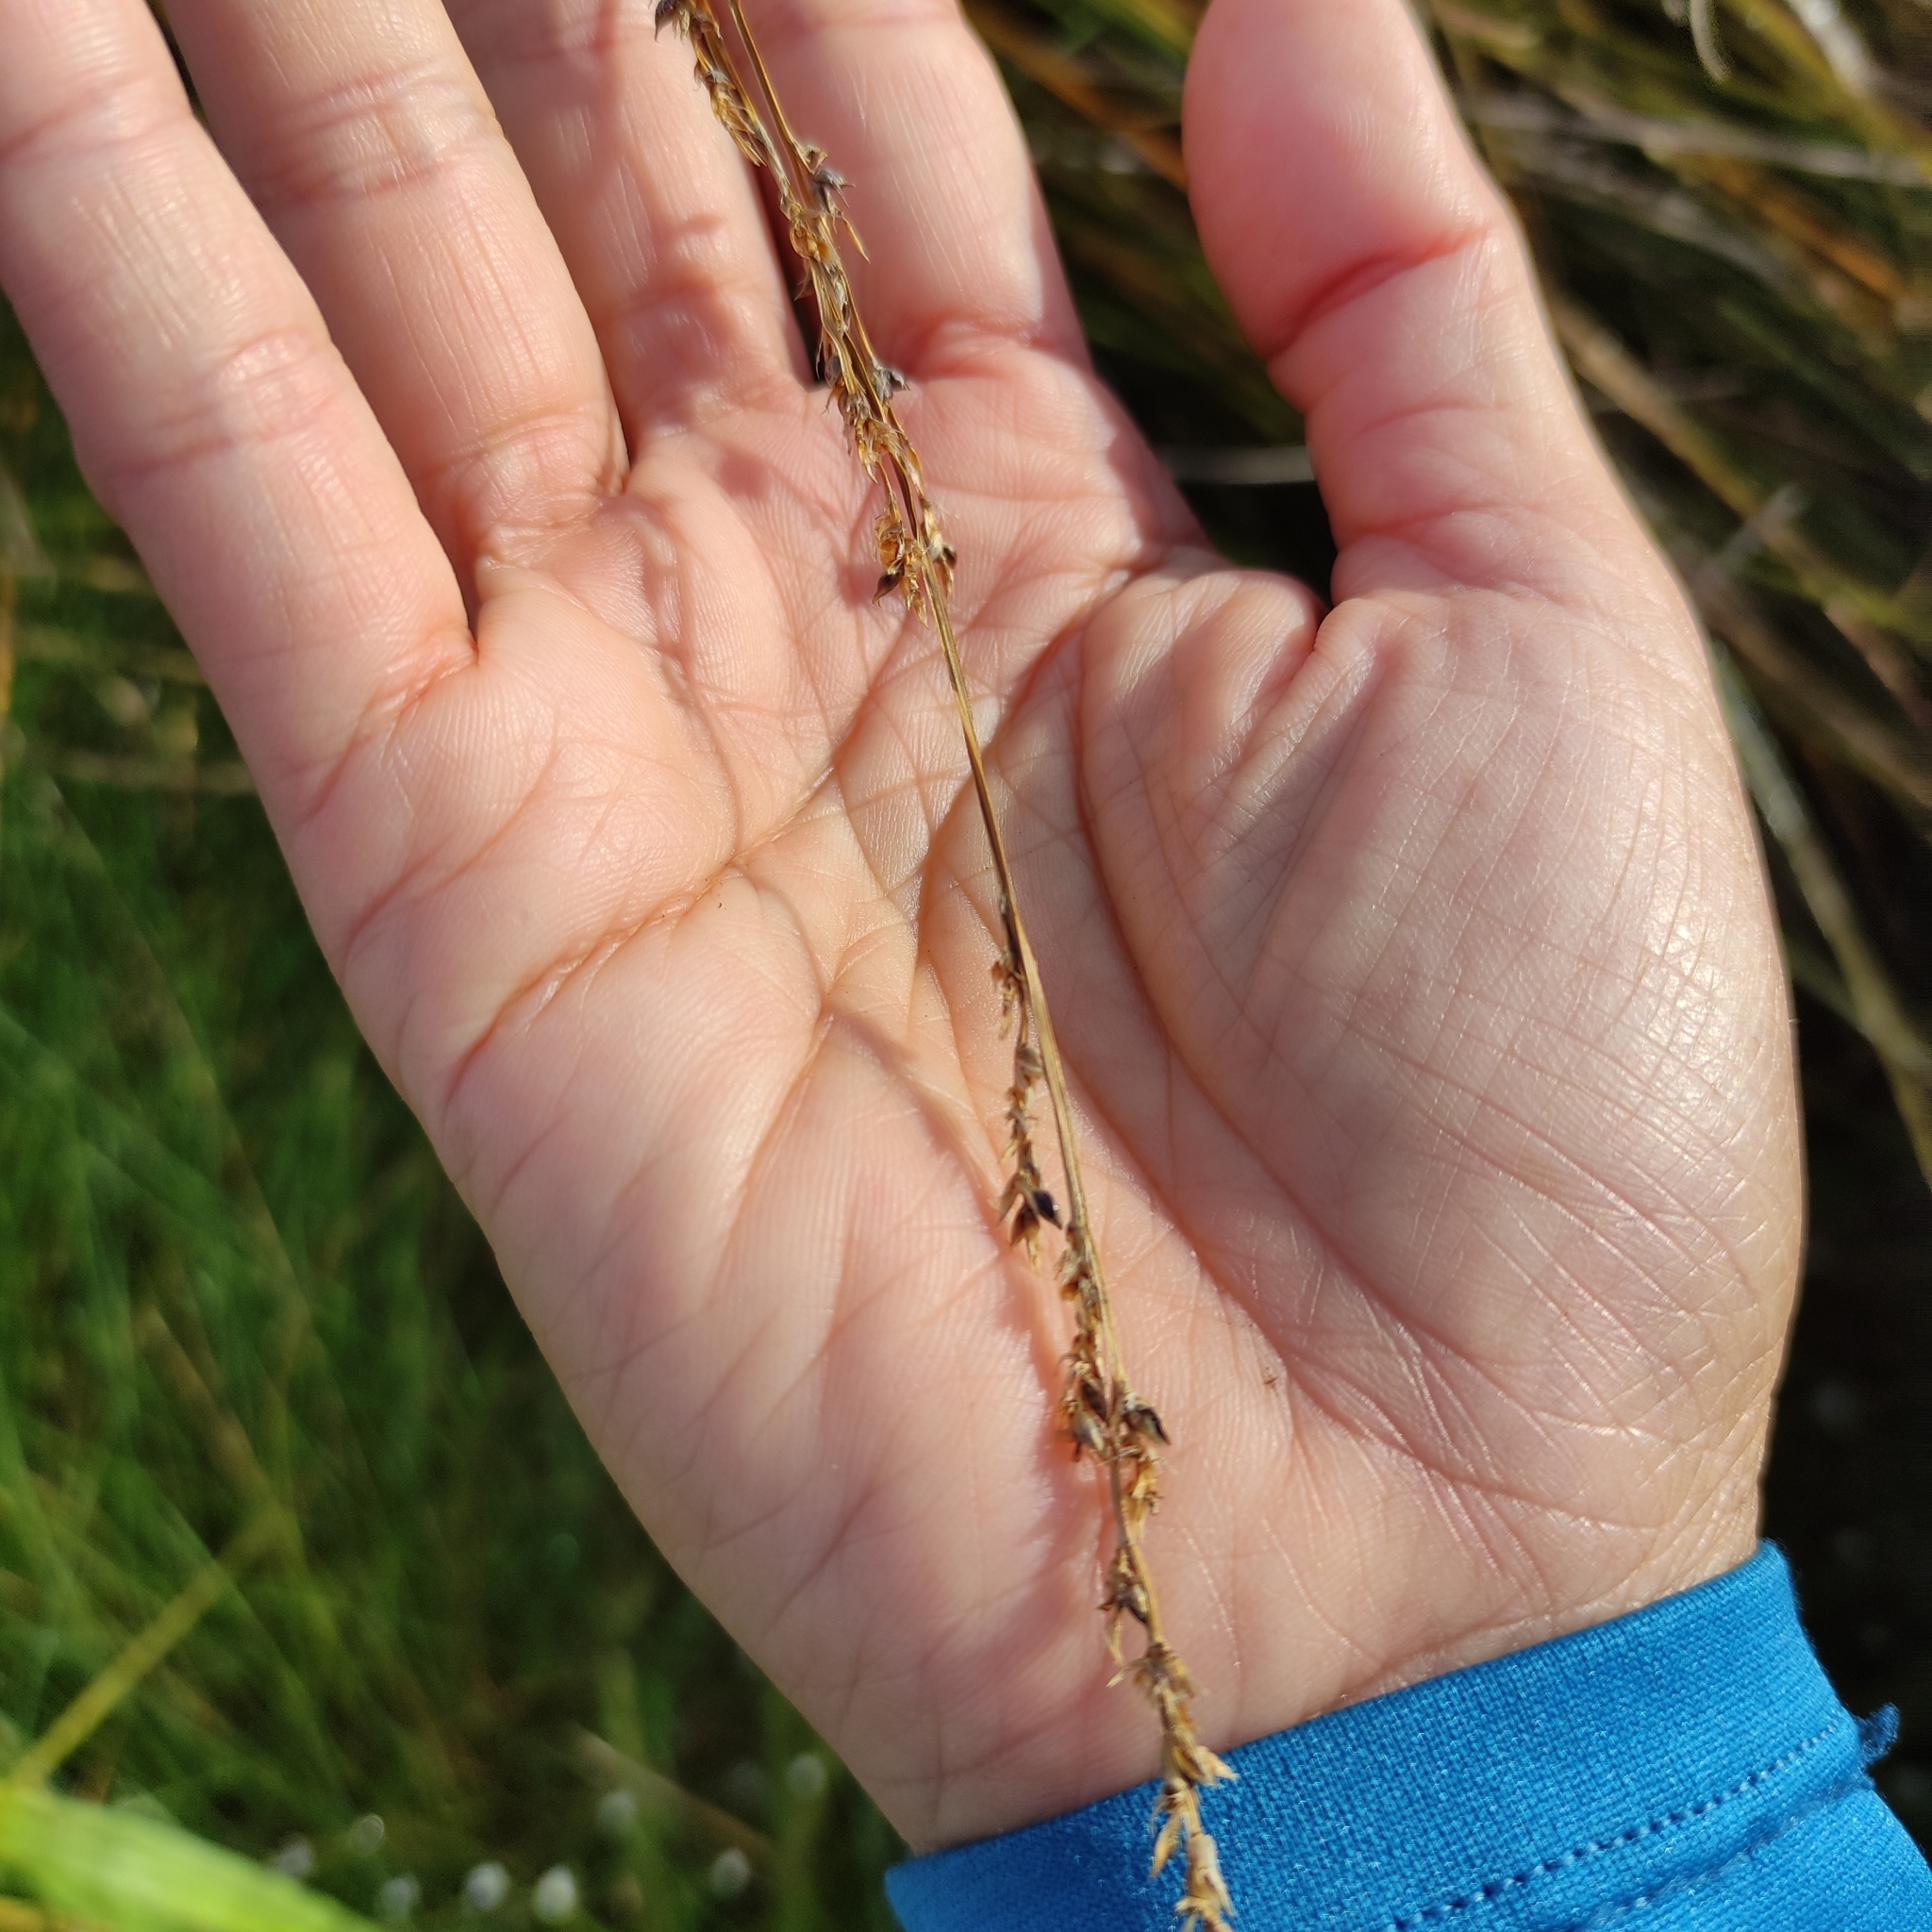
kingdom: Plantae
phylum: Tracheophyta
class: Liliopsida
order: Poales
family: Cyperaceae
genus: Carex
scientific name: Carex secta
